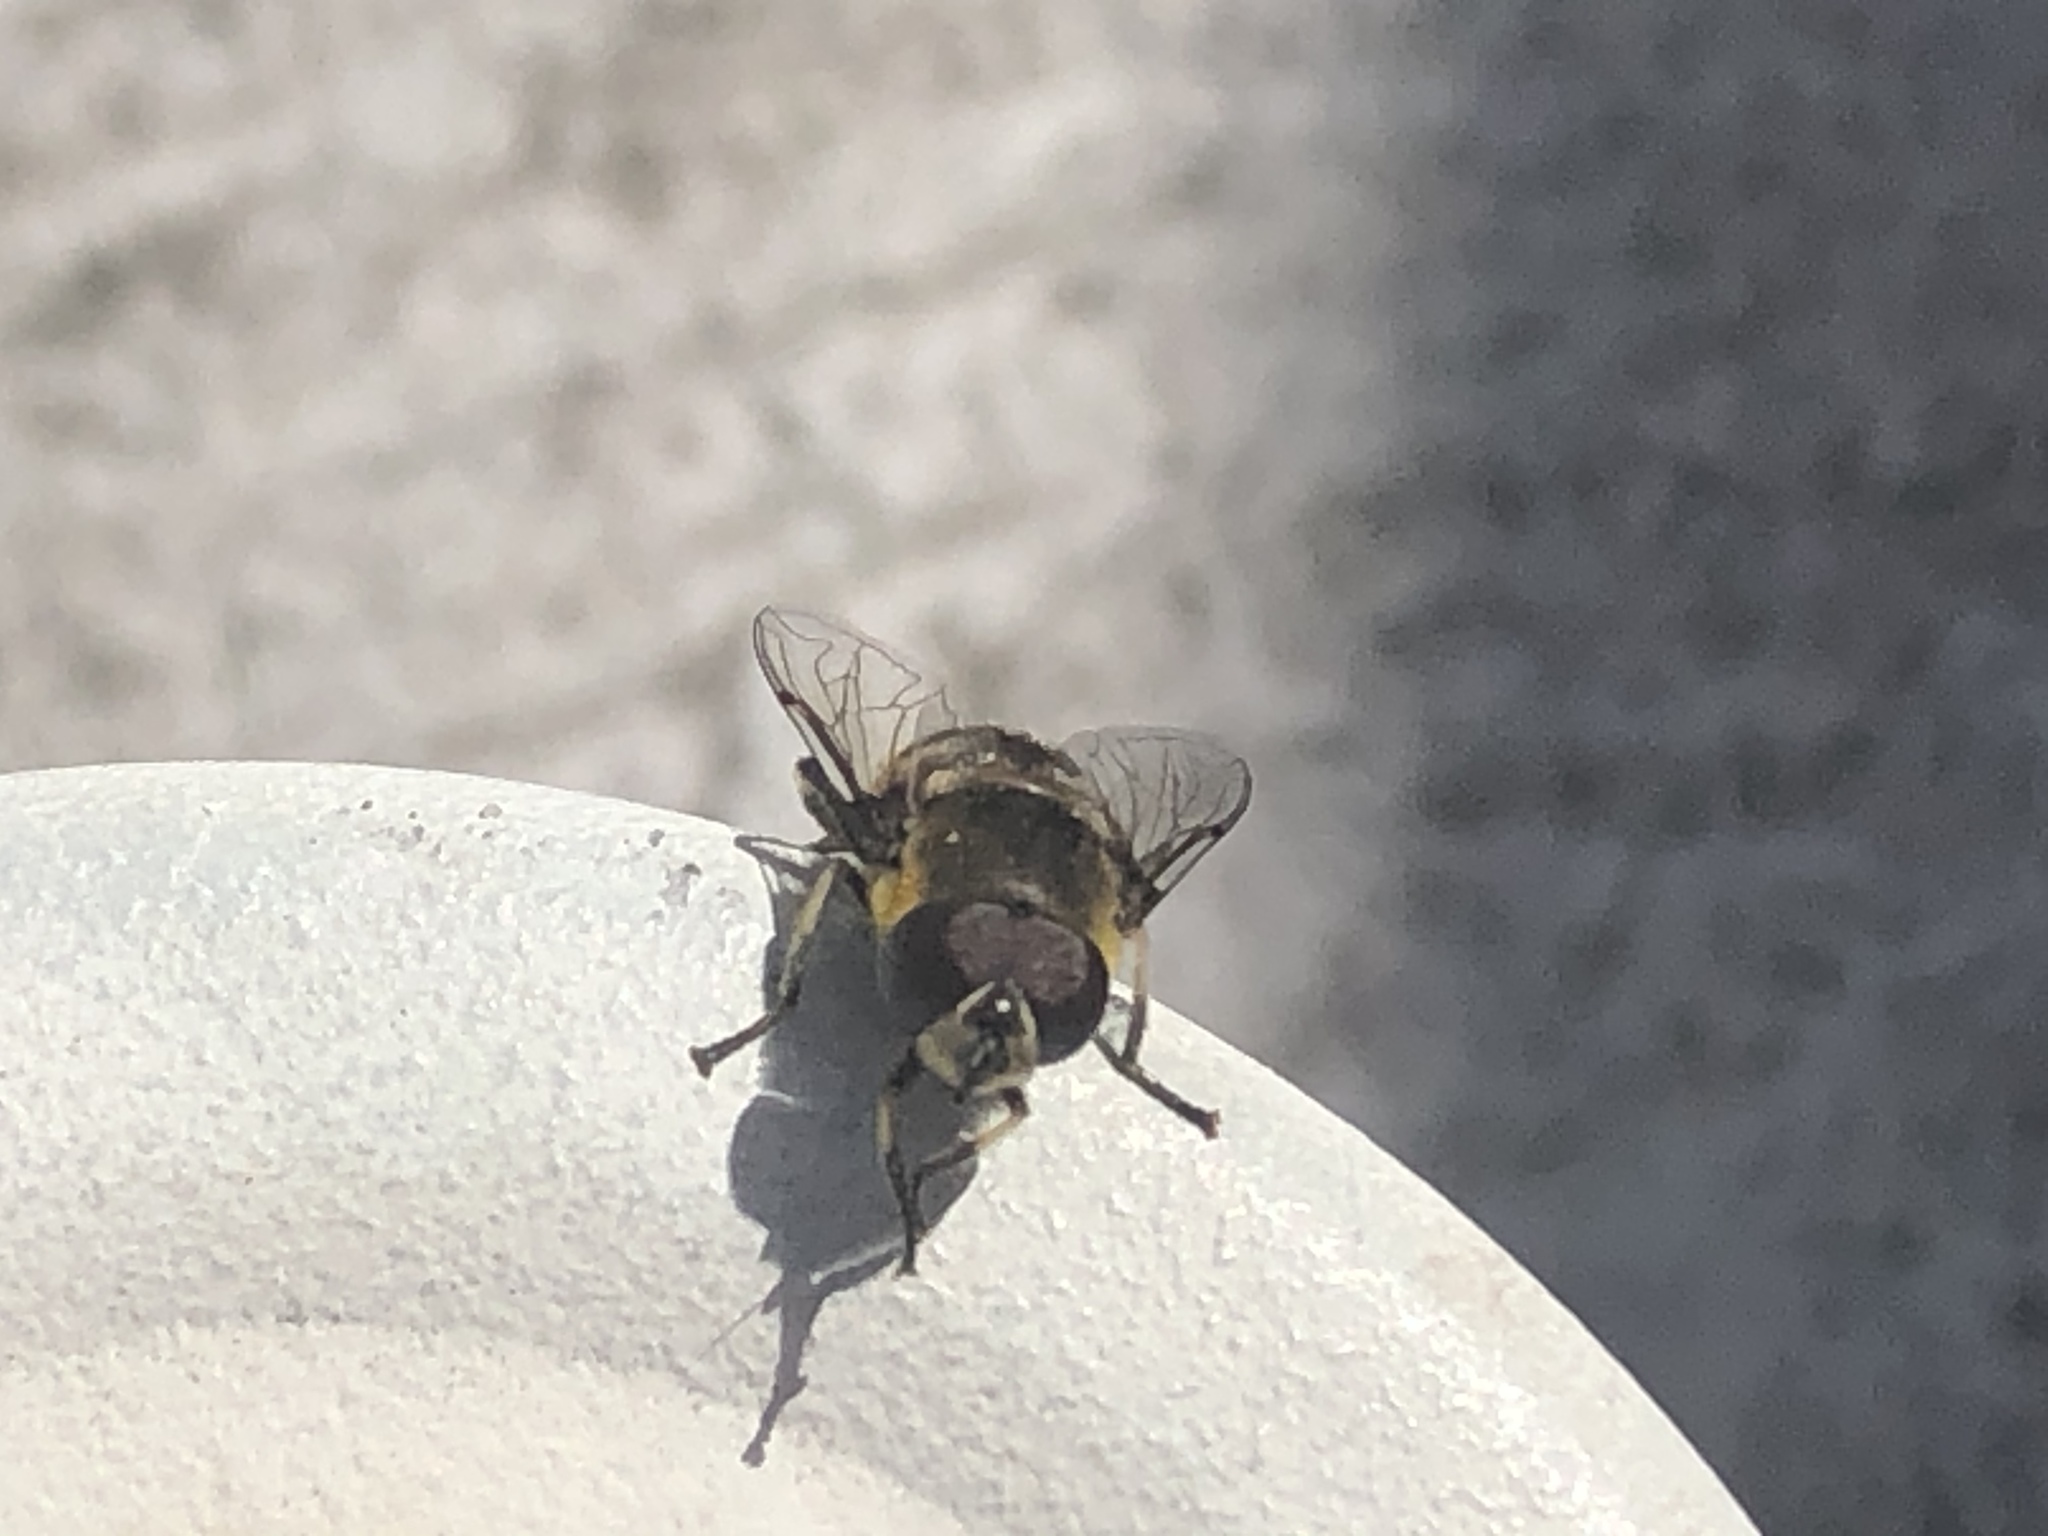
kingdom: Animalia
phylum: Arthropoda
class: Insecta
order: Diptera
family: Syrphidae
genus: Eristalis
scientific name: Eristalis dimidiata
